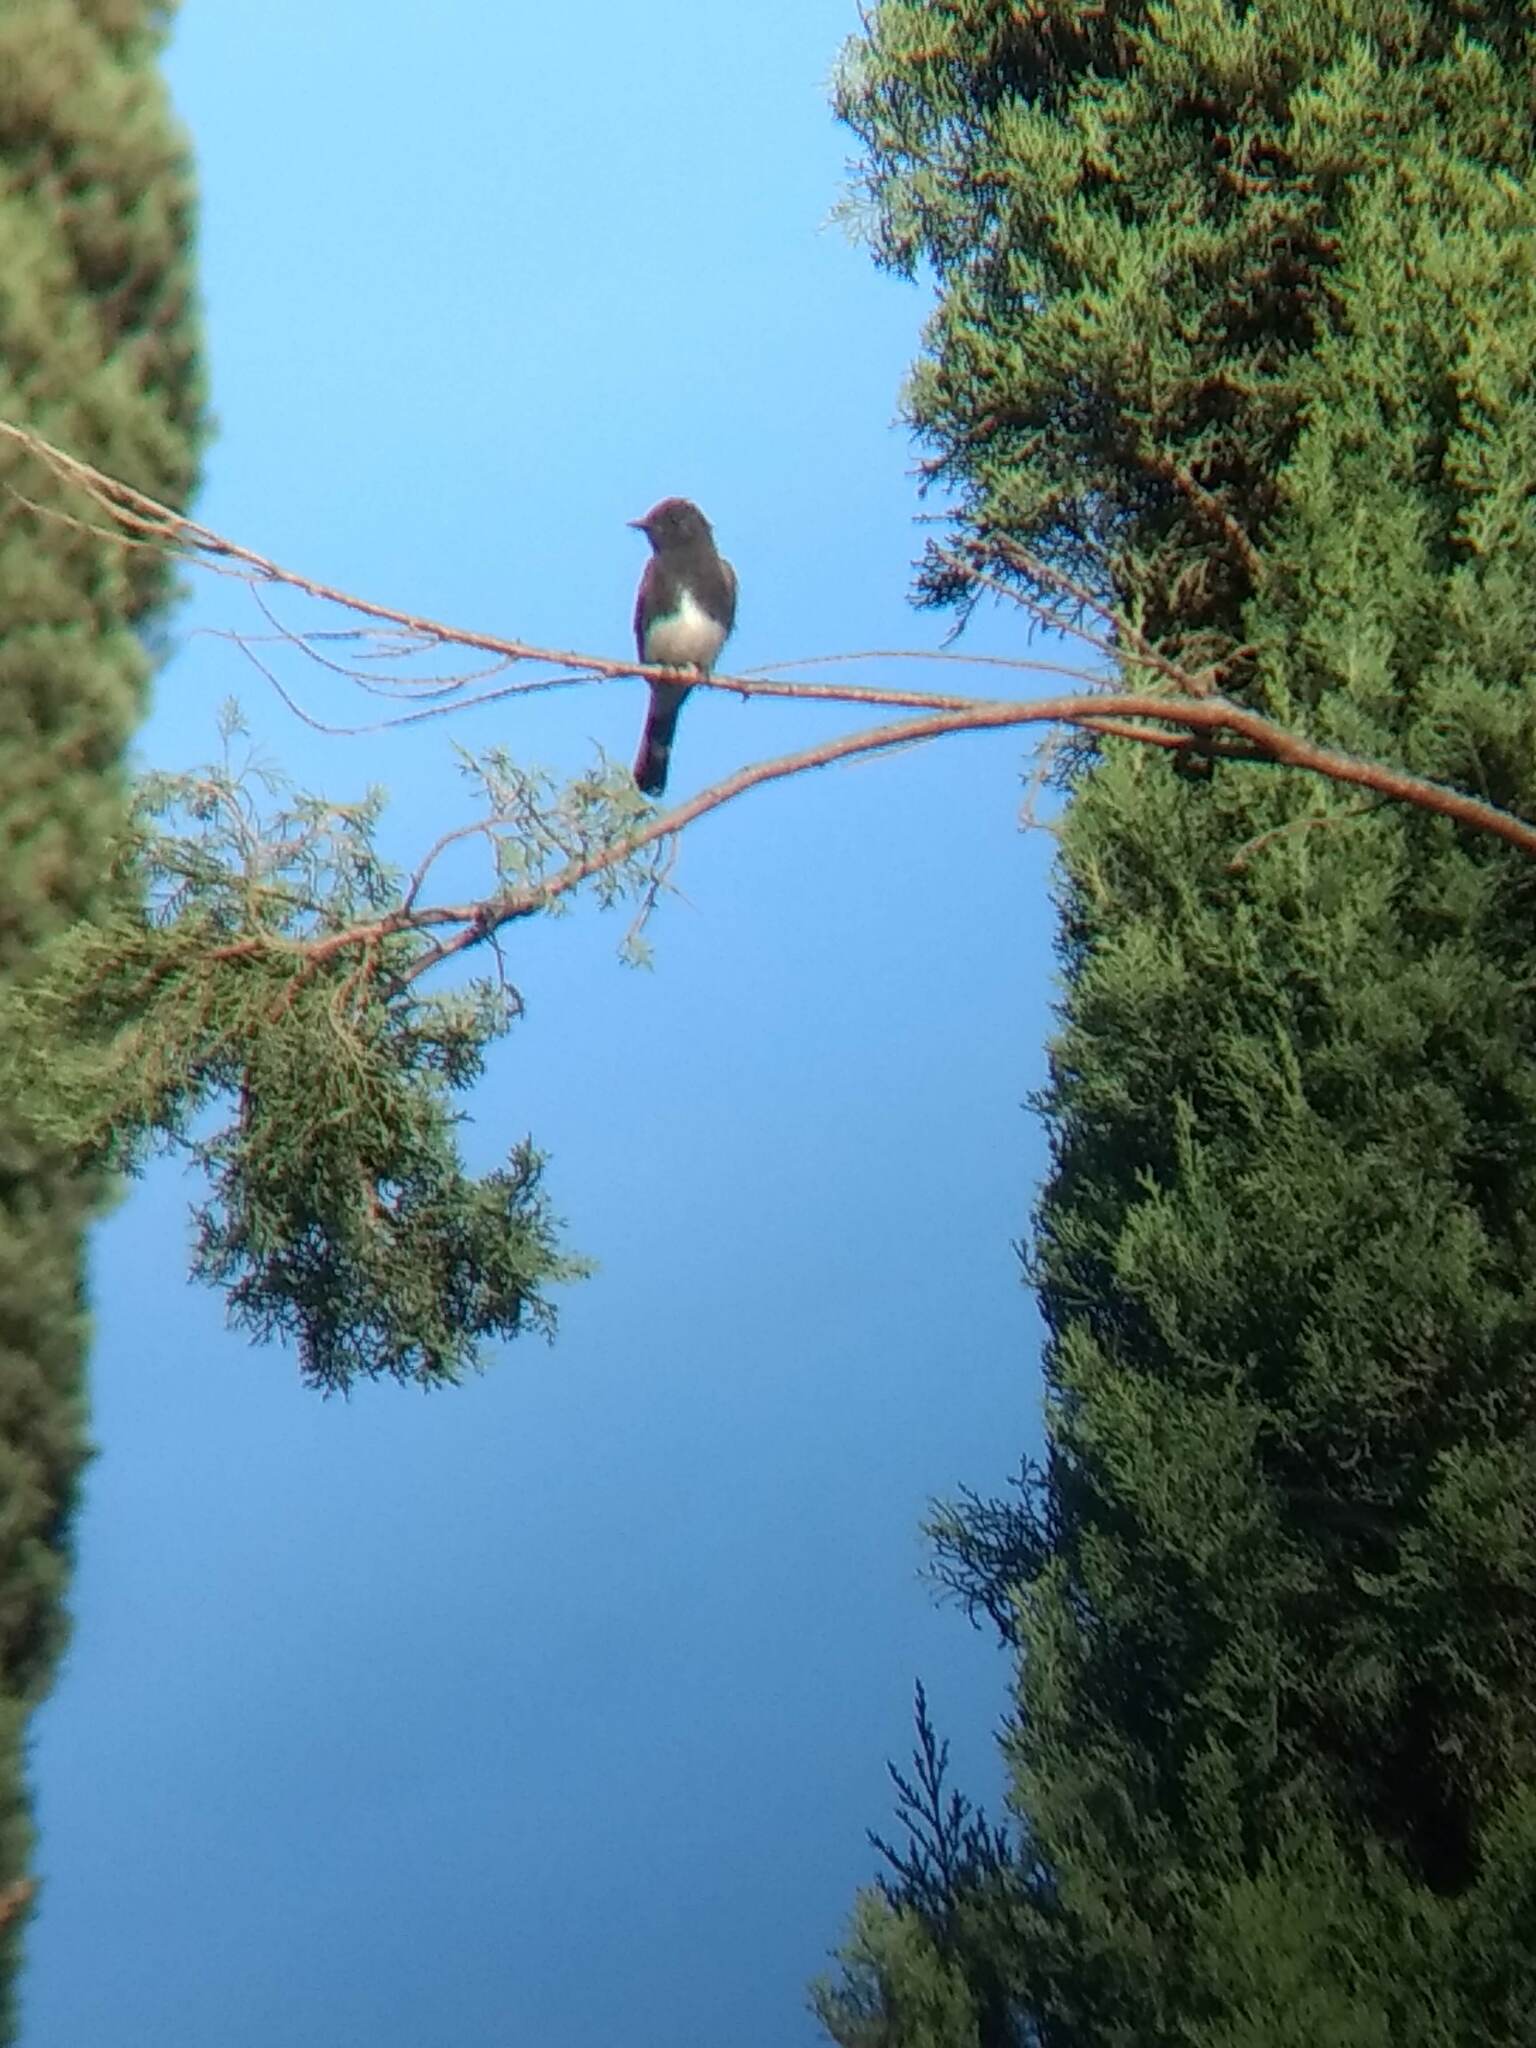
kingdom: Animalia
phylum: Chordata
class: Aves
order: Passeriformes
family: Tyrannidae
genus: Sayornis
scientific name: Sayornis nigricans
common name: Black phoebe
